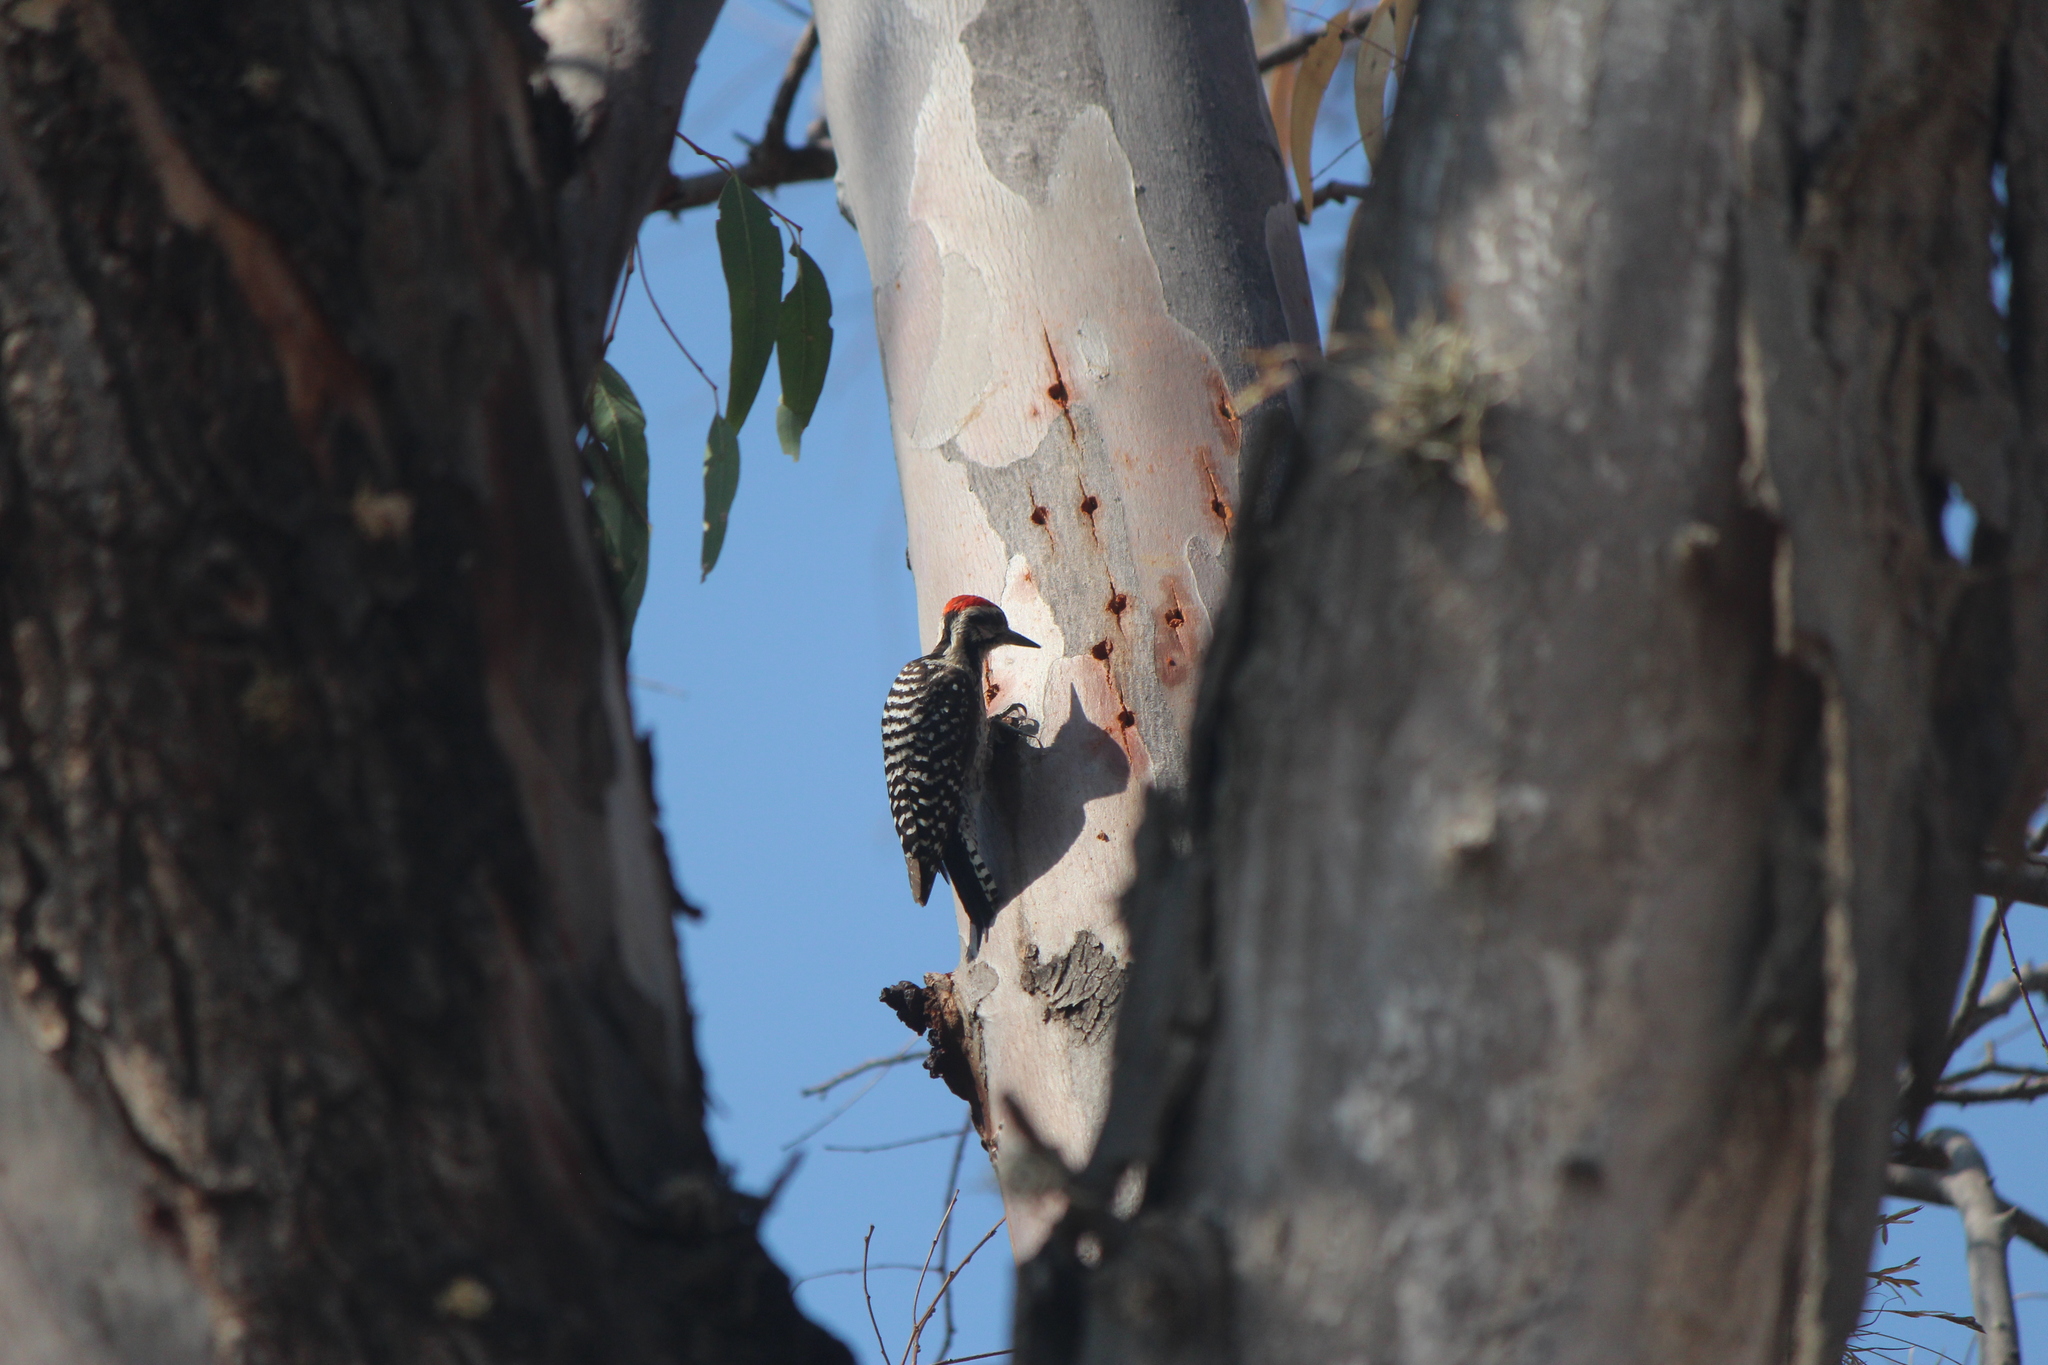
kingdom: Animalia
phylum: Chordata
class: Aves
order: Piciformes
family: Picidae
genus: Dryobates
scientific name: Dryobates scalaris
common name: Ladder-backed woodpecker
